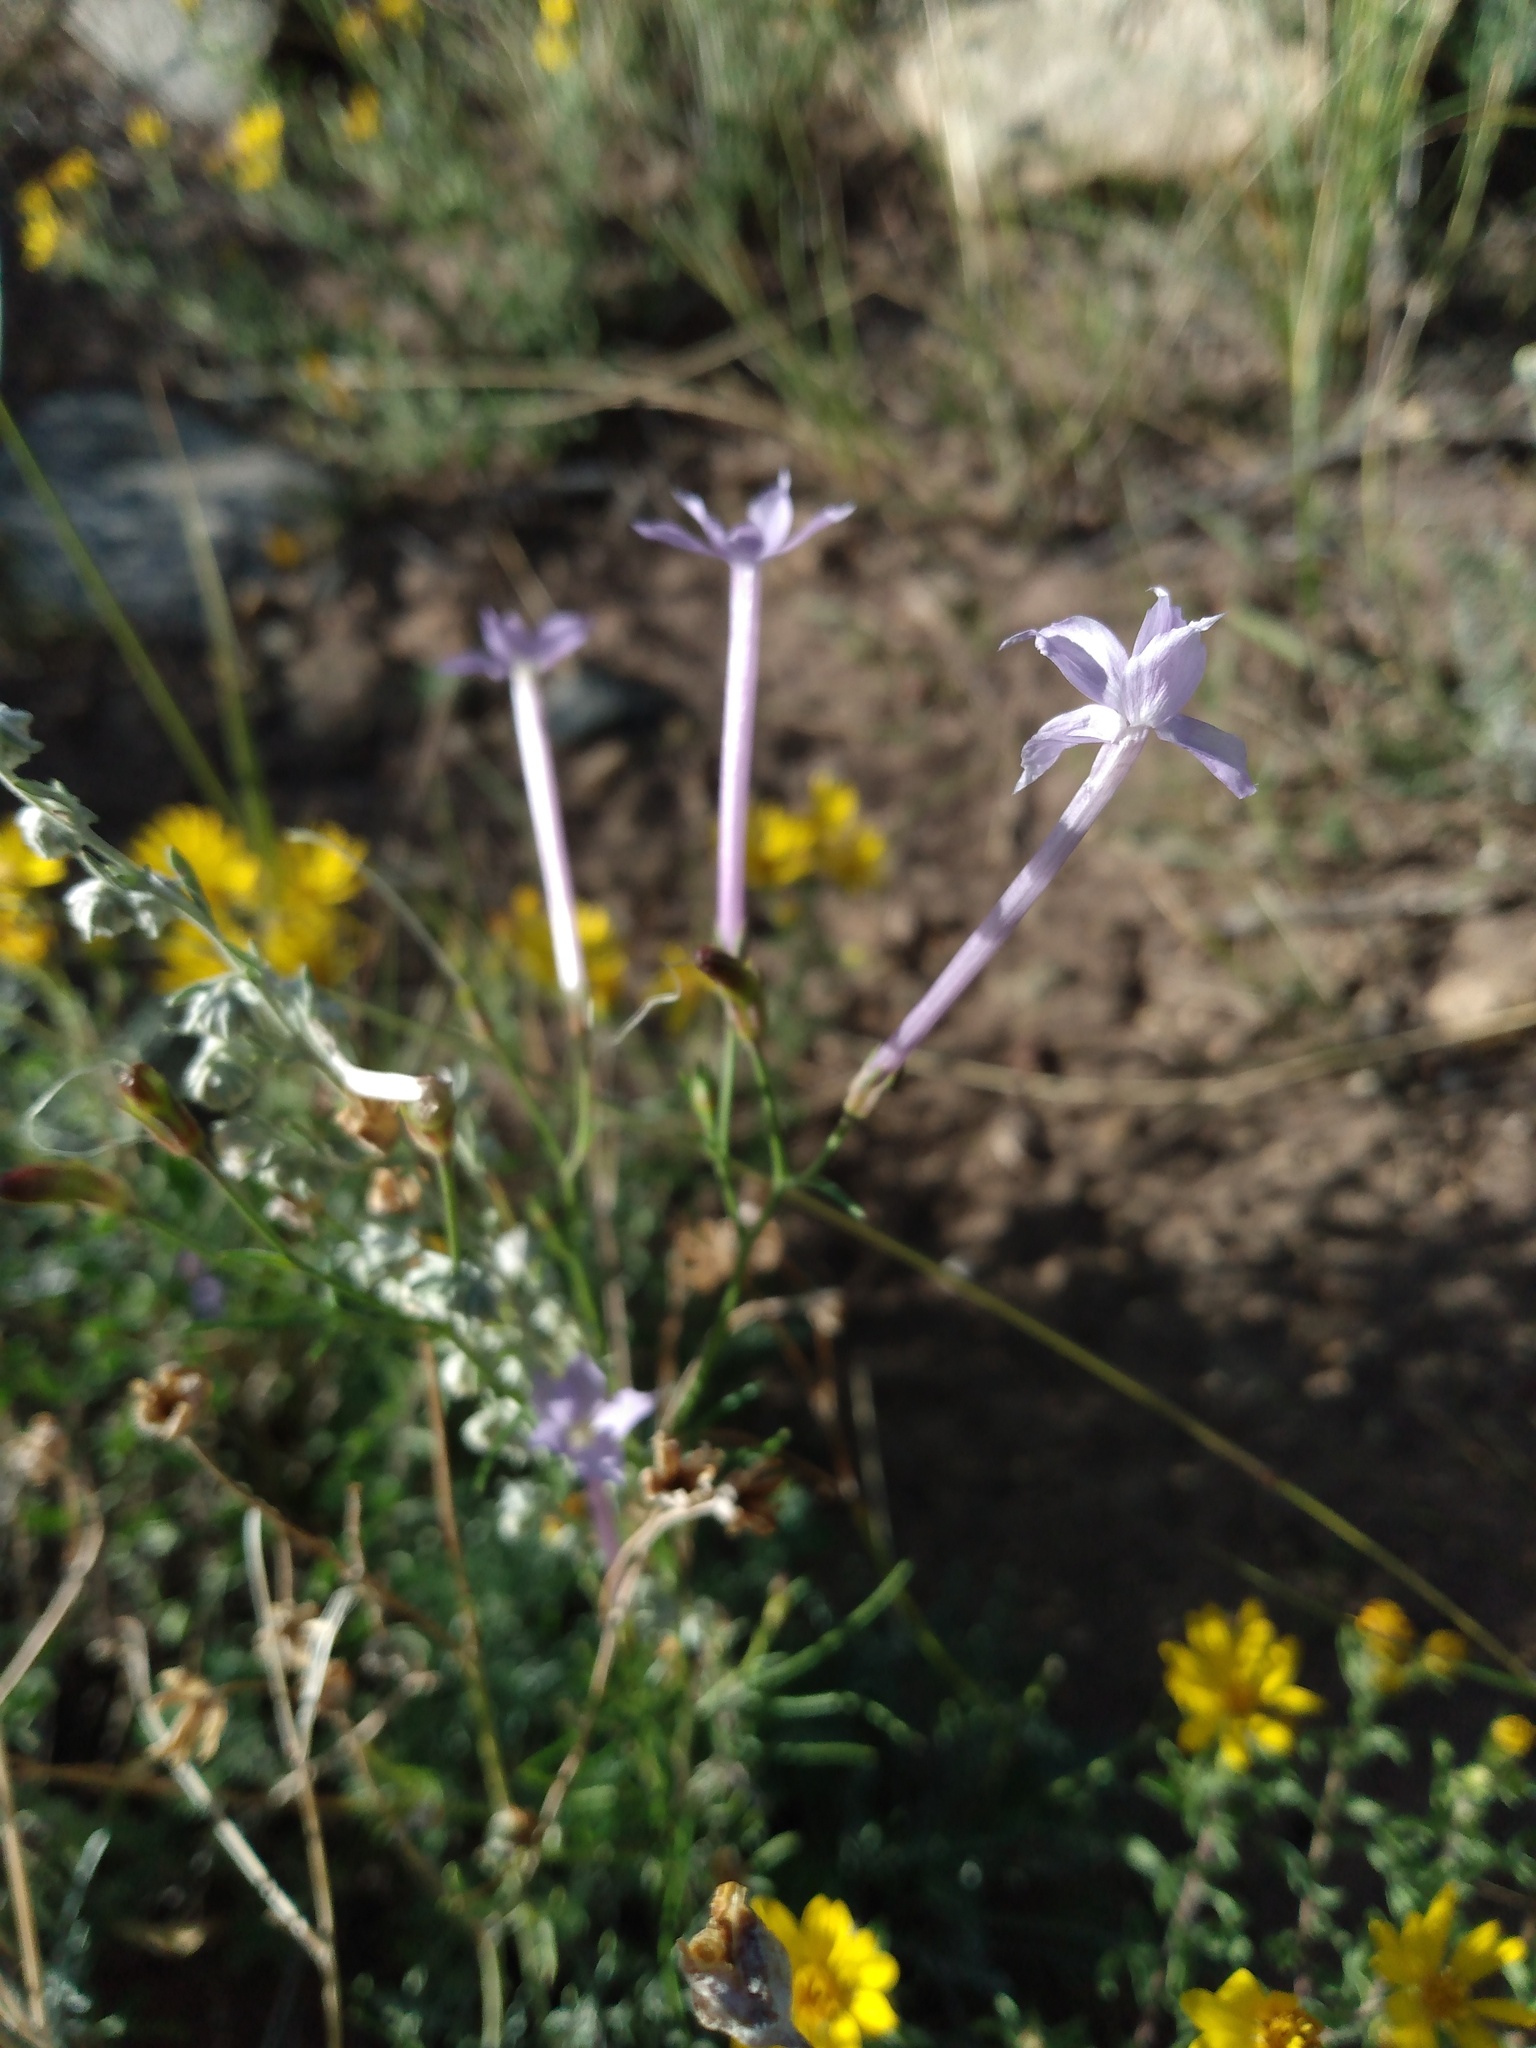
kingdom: Plantae
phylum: Tracheophyta
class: Magnoliopsida
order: Ericales
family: Polemoniaceae
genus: Ipomopsis
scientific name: Ipomopsis longiflora
